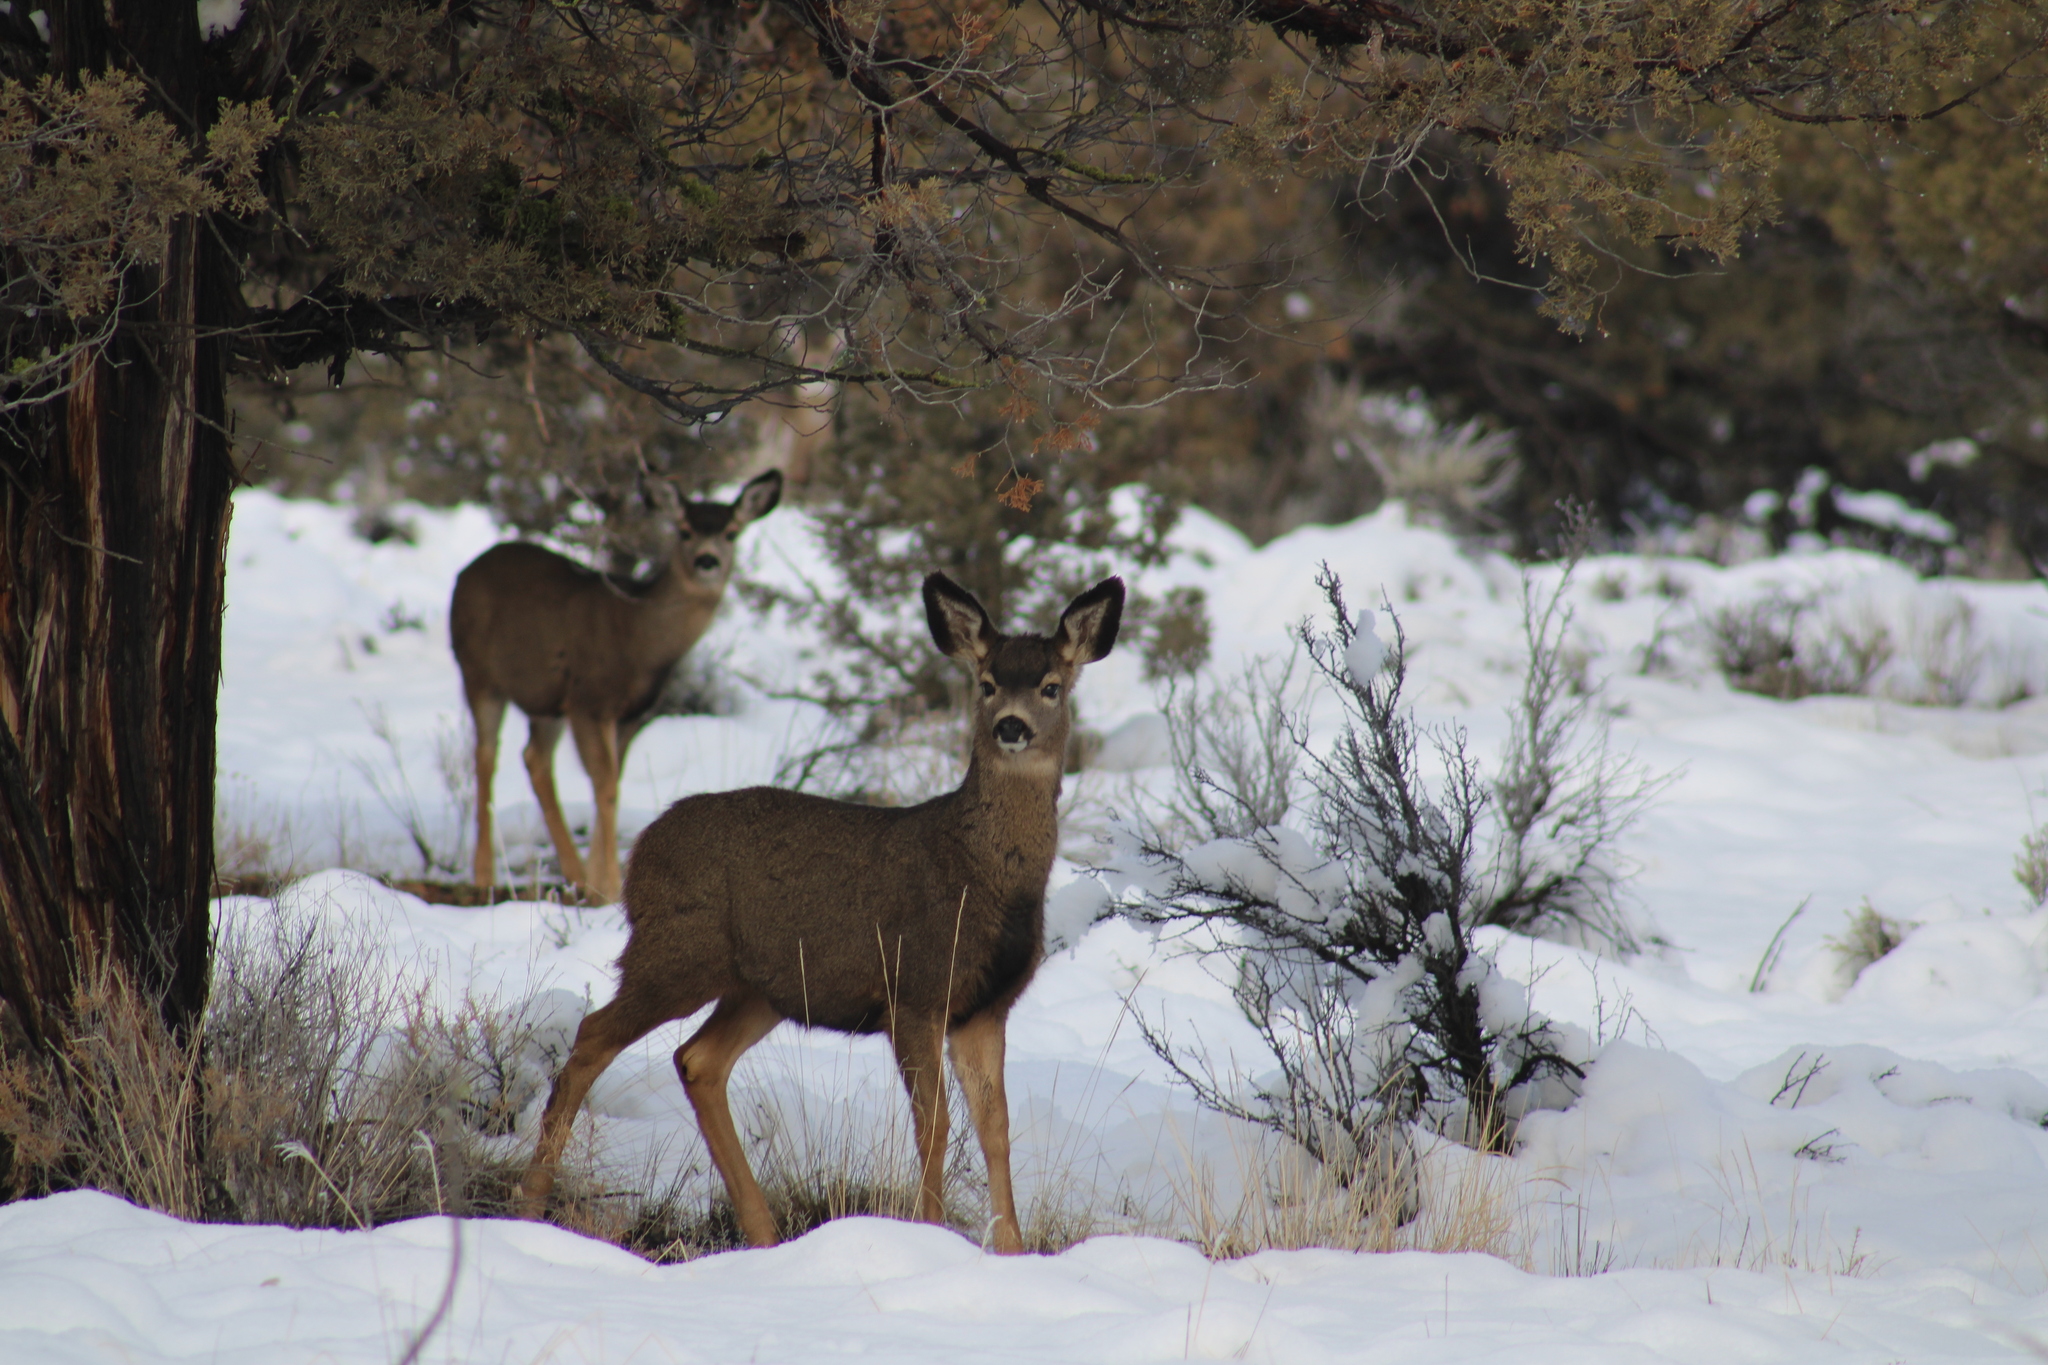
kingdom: Animalia
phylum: Chordata
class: Mammalia
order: Artiodactyla
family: Cervidae
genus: Odocoileus
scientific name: Odocoileus hemionus
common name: Mule deer
